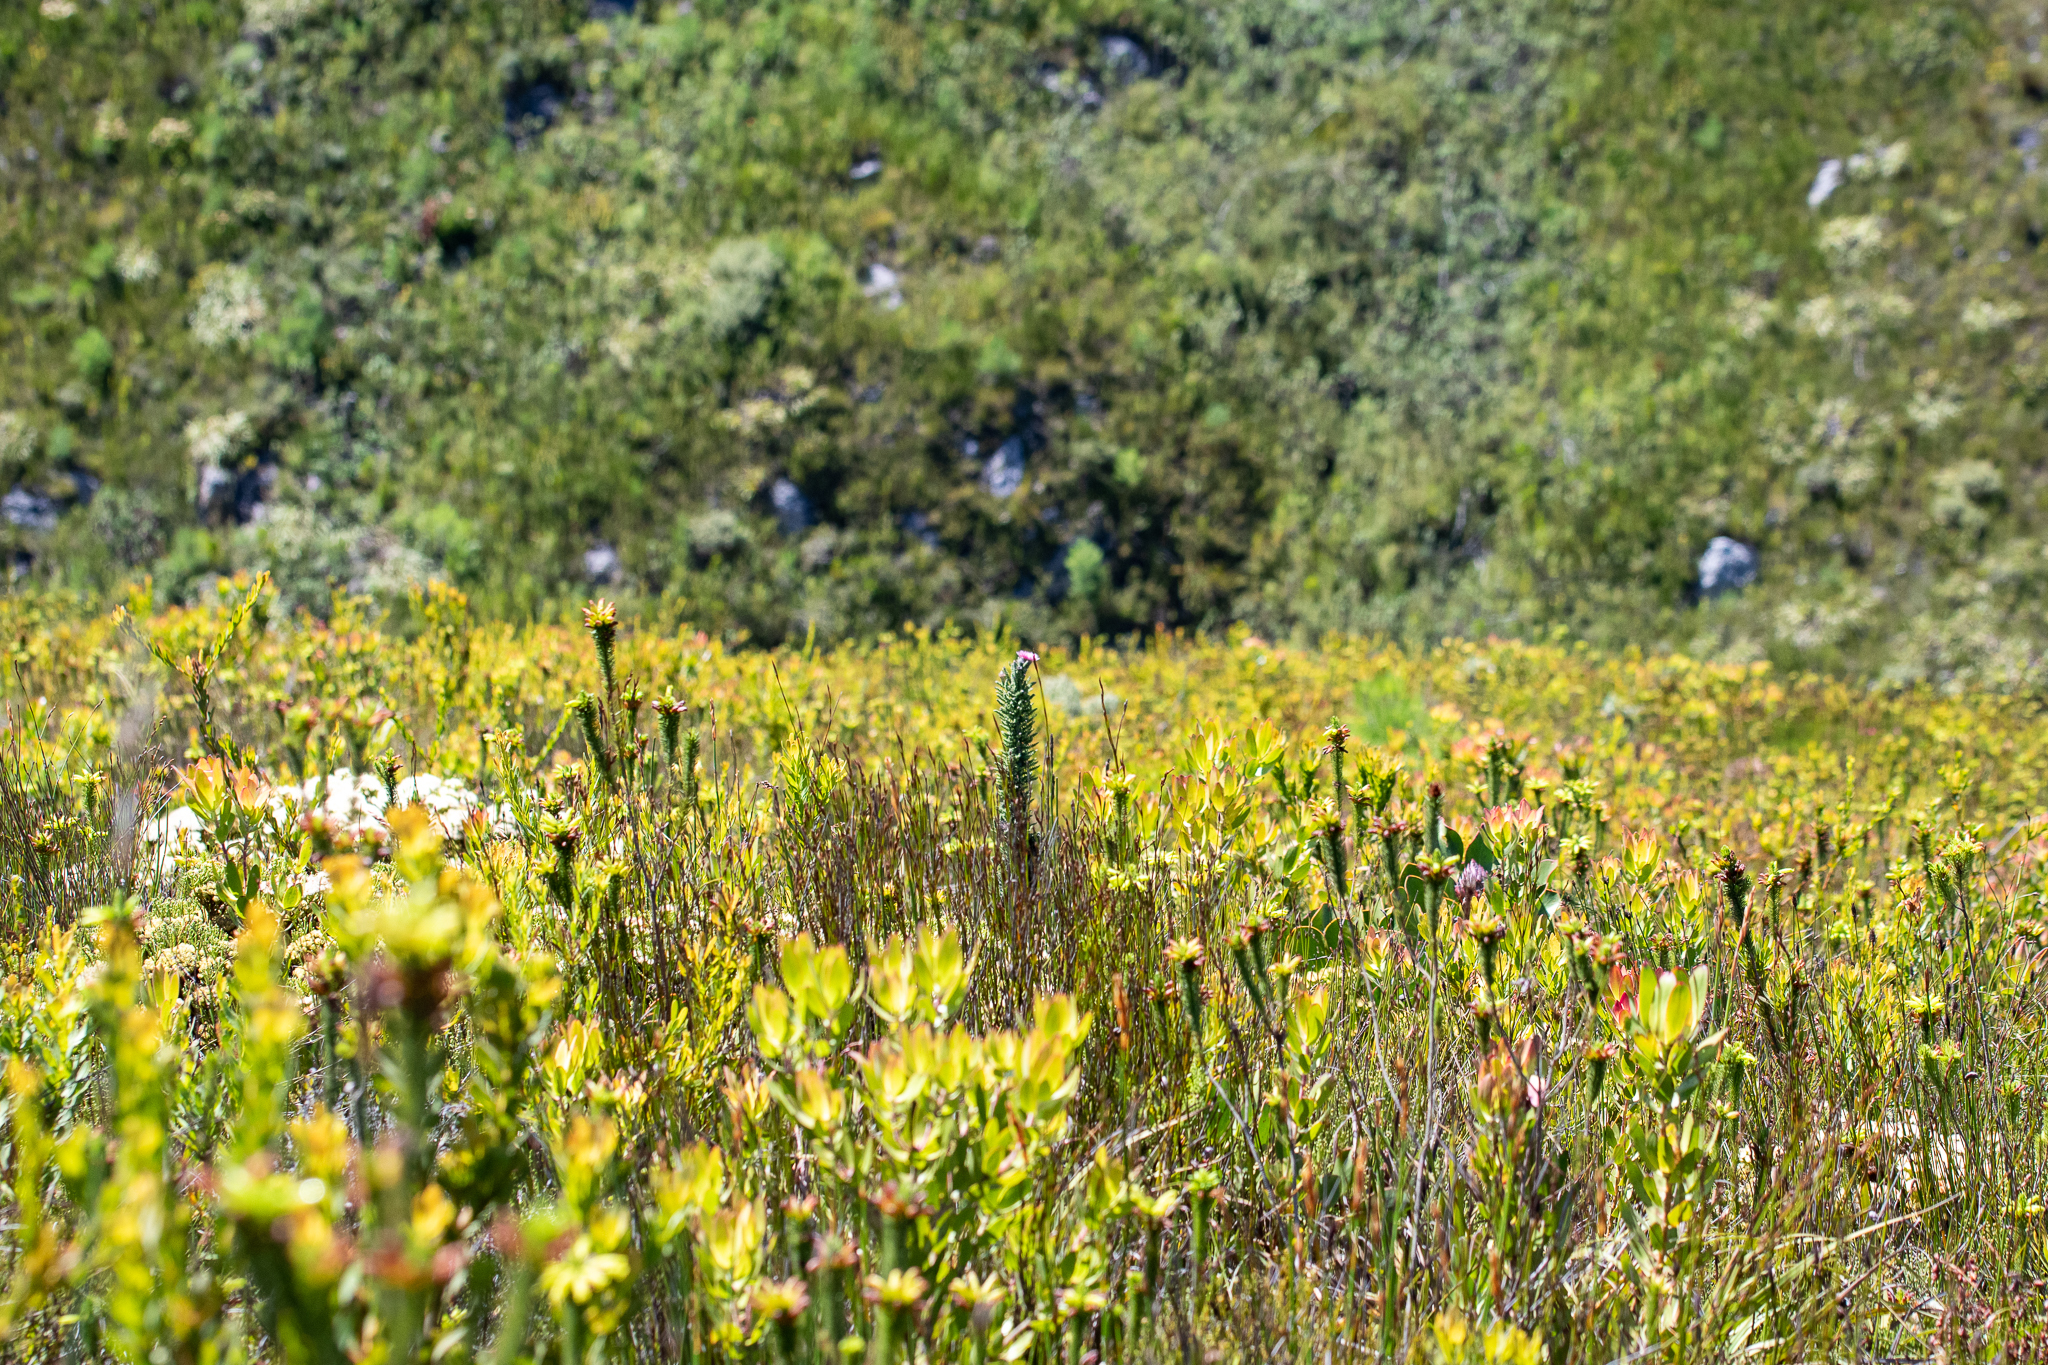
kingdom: Plantae
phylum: Tracheophyta
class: Magnoliopsida
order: Asterales
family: Asteraceae
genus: Phaenocoma
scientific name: Phaenocoma prolifera
